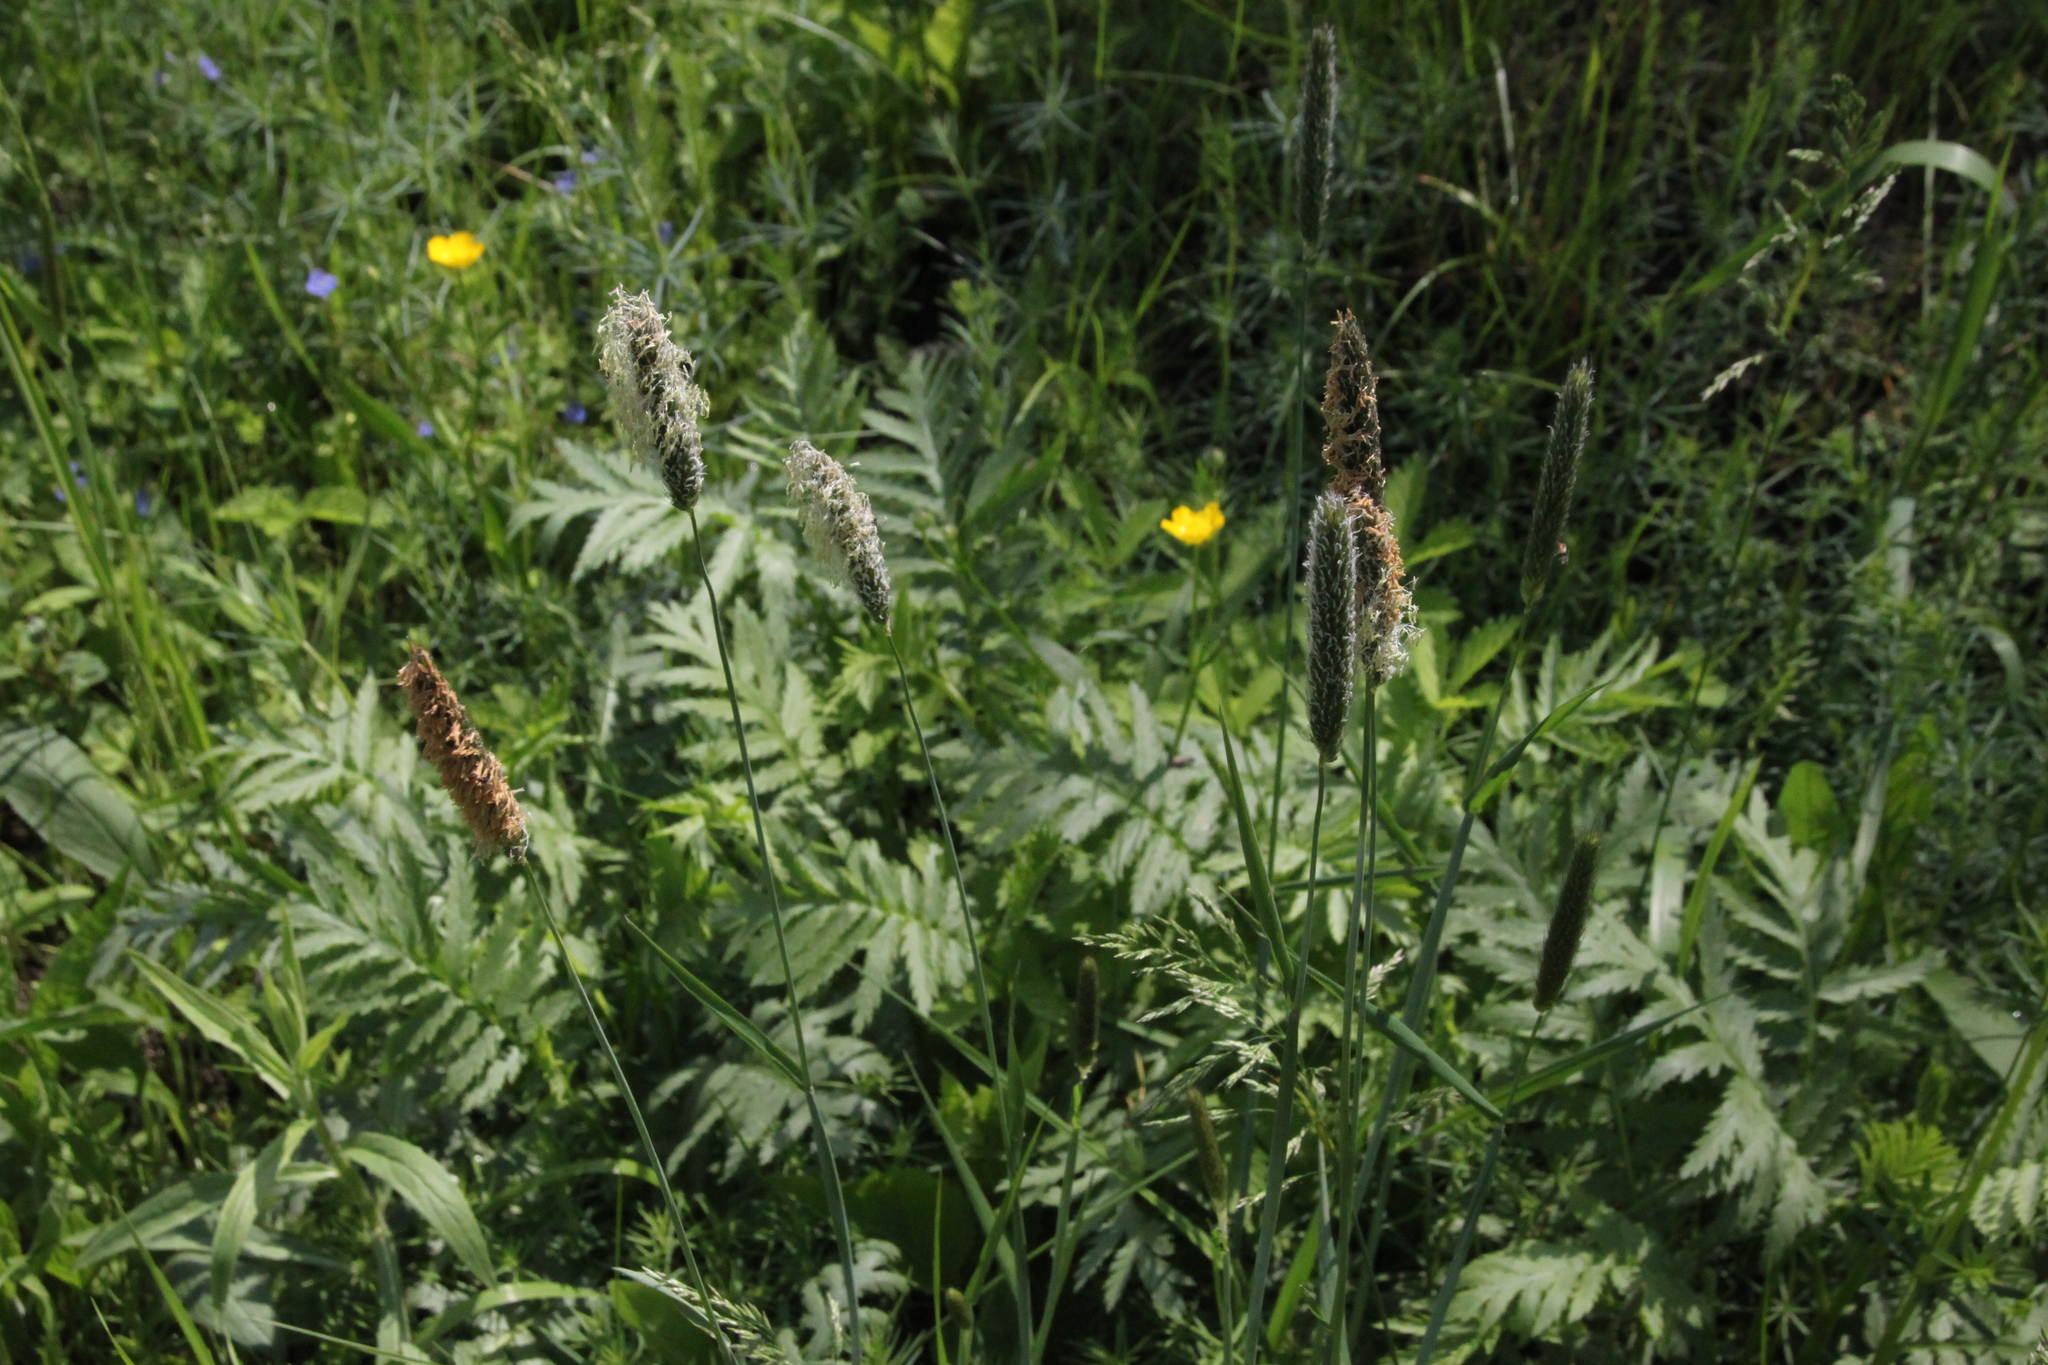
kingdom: Plantae
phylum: Tracheophyta
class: Liliopsida
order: Poales
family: Poaceae
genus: Alopecurus
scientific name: Alopecurus pratensis
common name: Meadow foxtail
